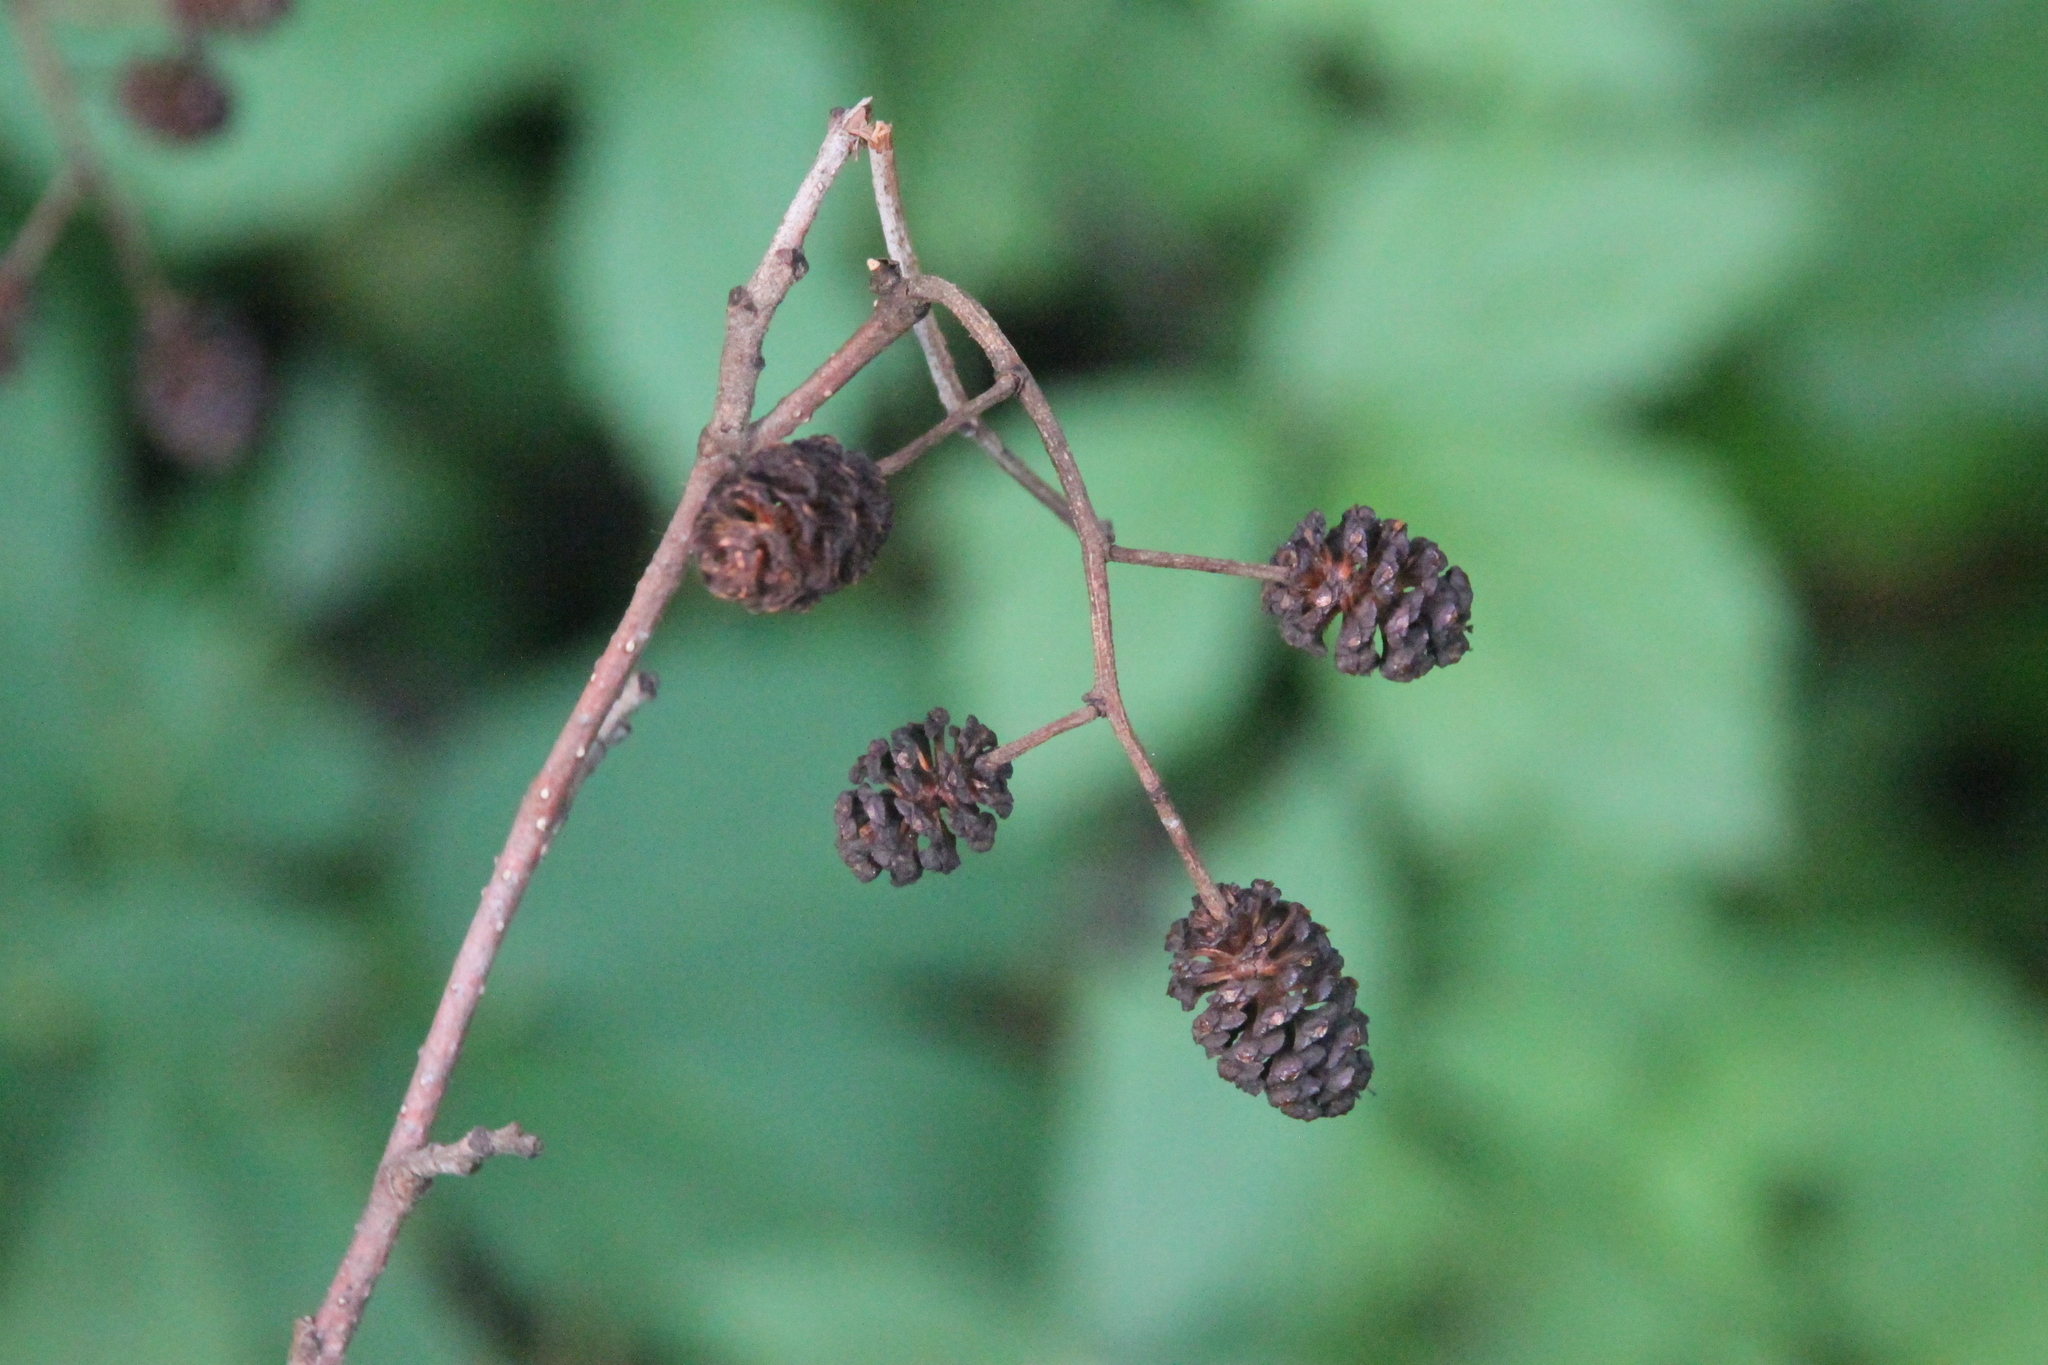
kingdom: Plantae
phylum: Tracheophyta
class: Magnoliopsida
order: Fagales
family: Betulaceae
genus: Alnus
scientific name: Alnus glutinosa
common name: Black alder
